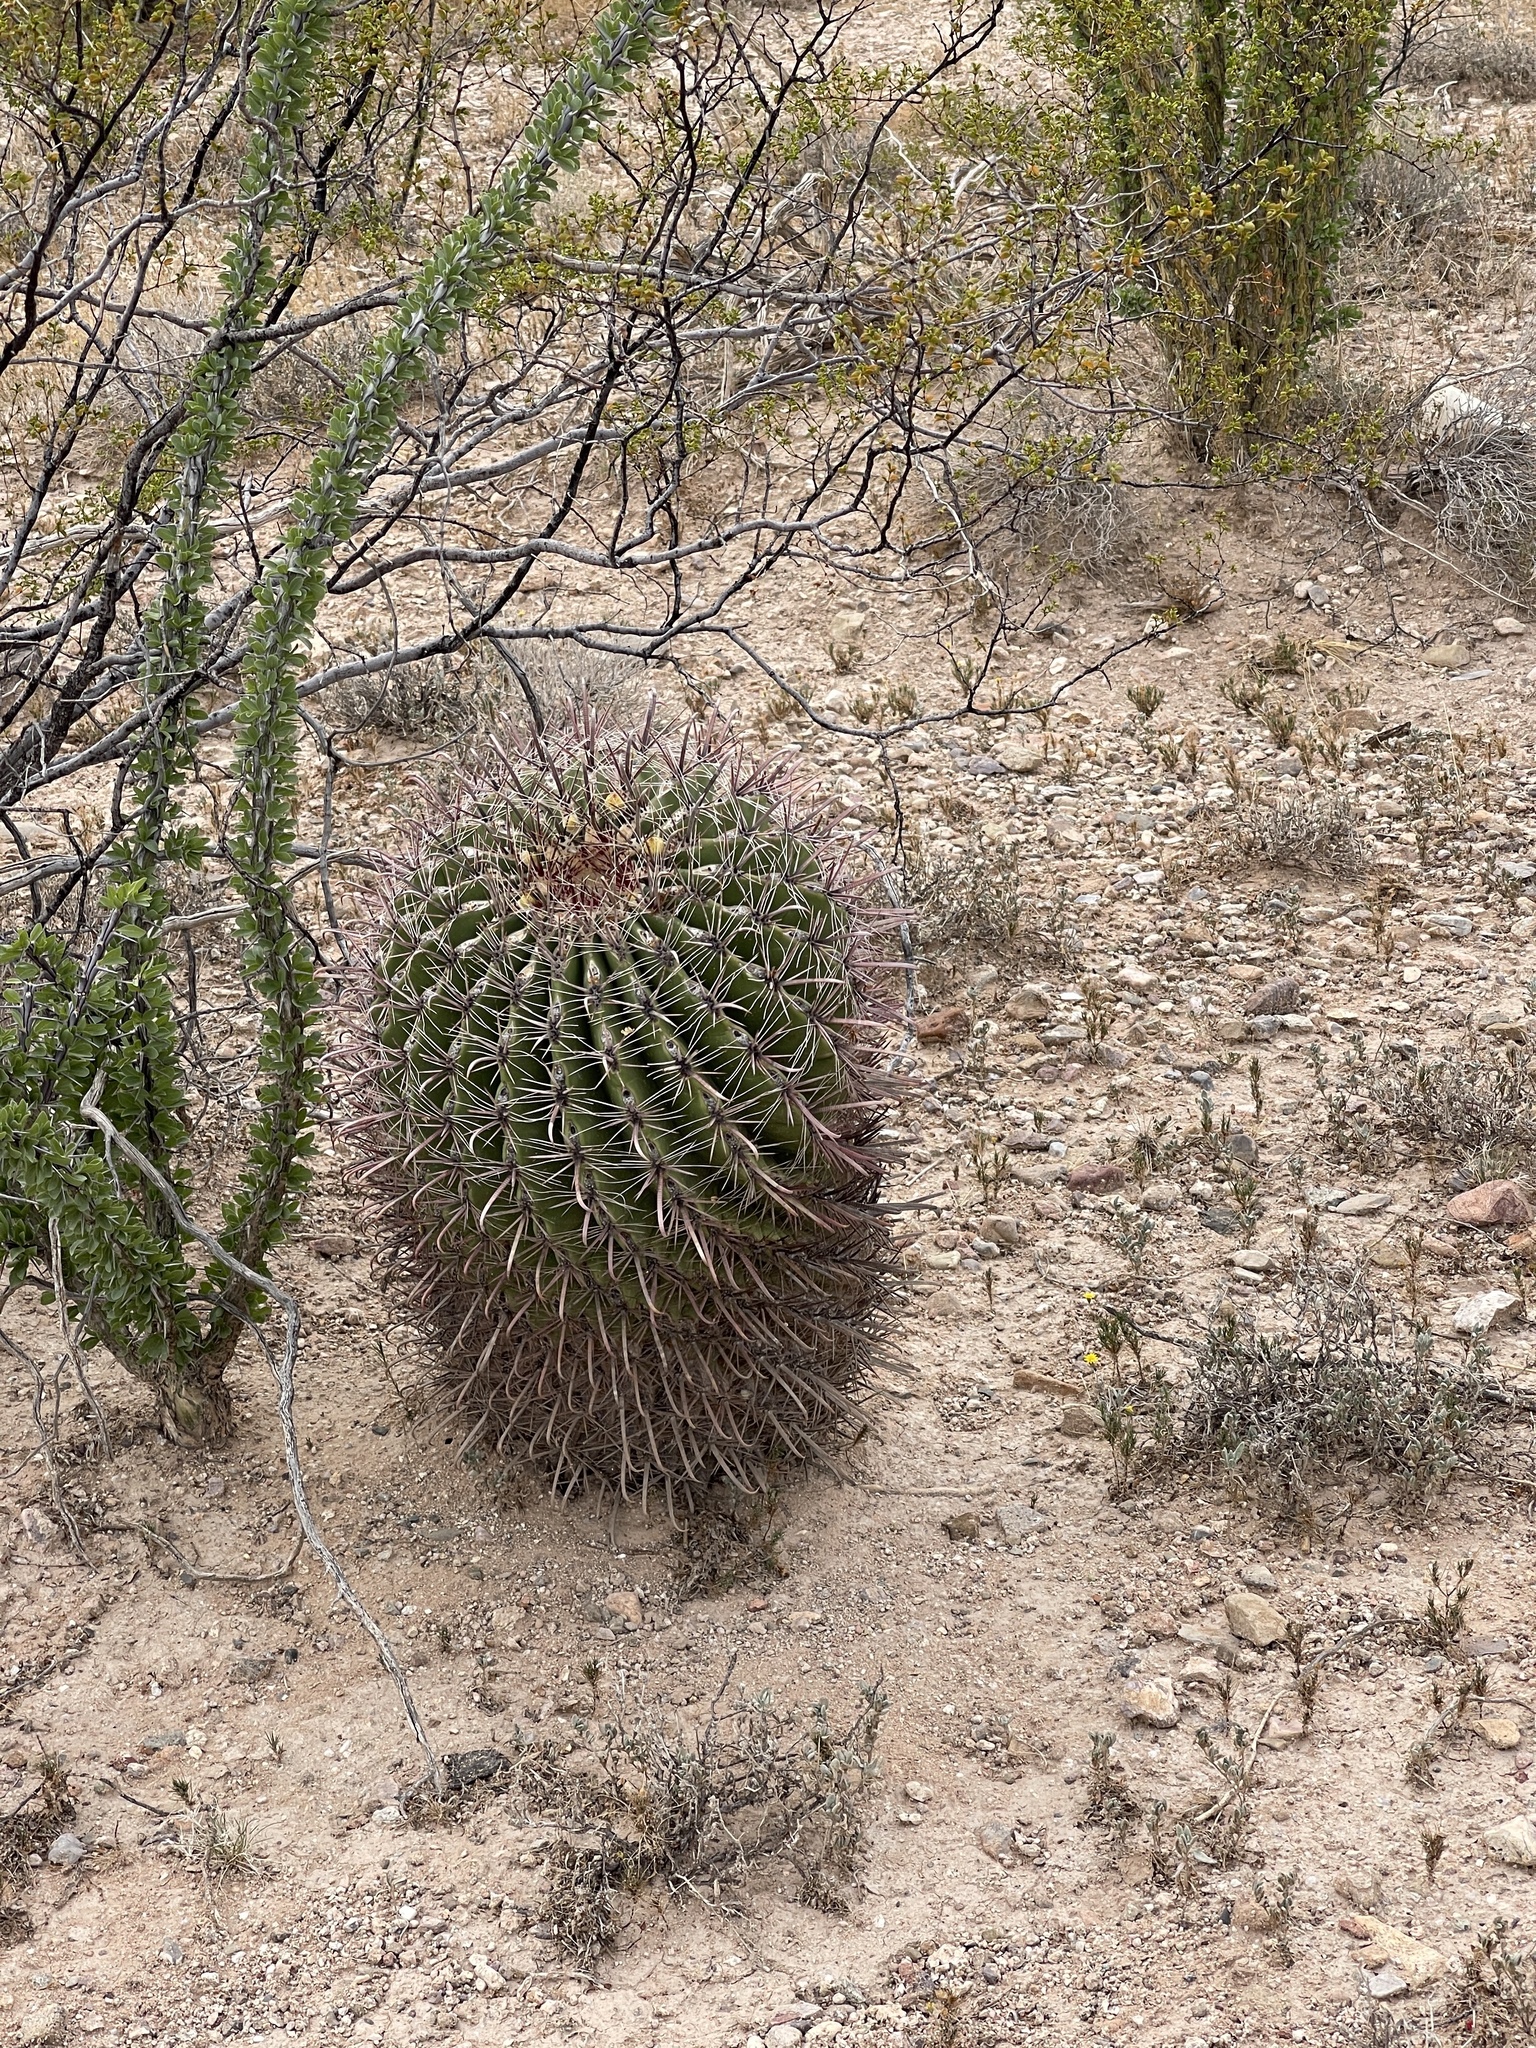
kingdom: Plantae
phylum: Tracheophyta
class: Magnoliopsida
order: Caryophyllales
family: Cactaceae
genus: Ferocactus
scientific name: Ferocactus wislizeni
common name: Candy barrel cactus
